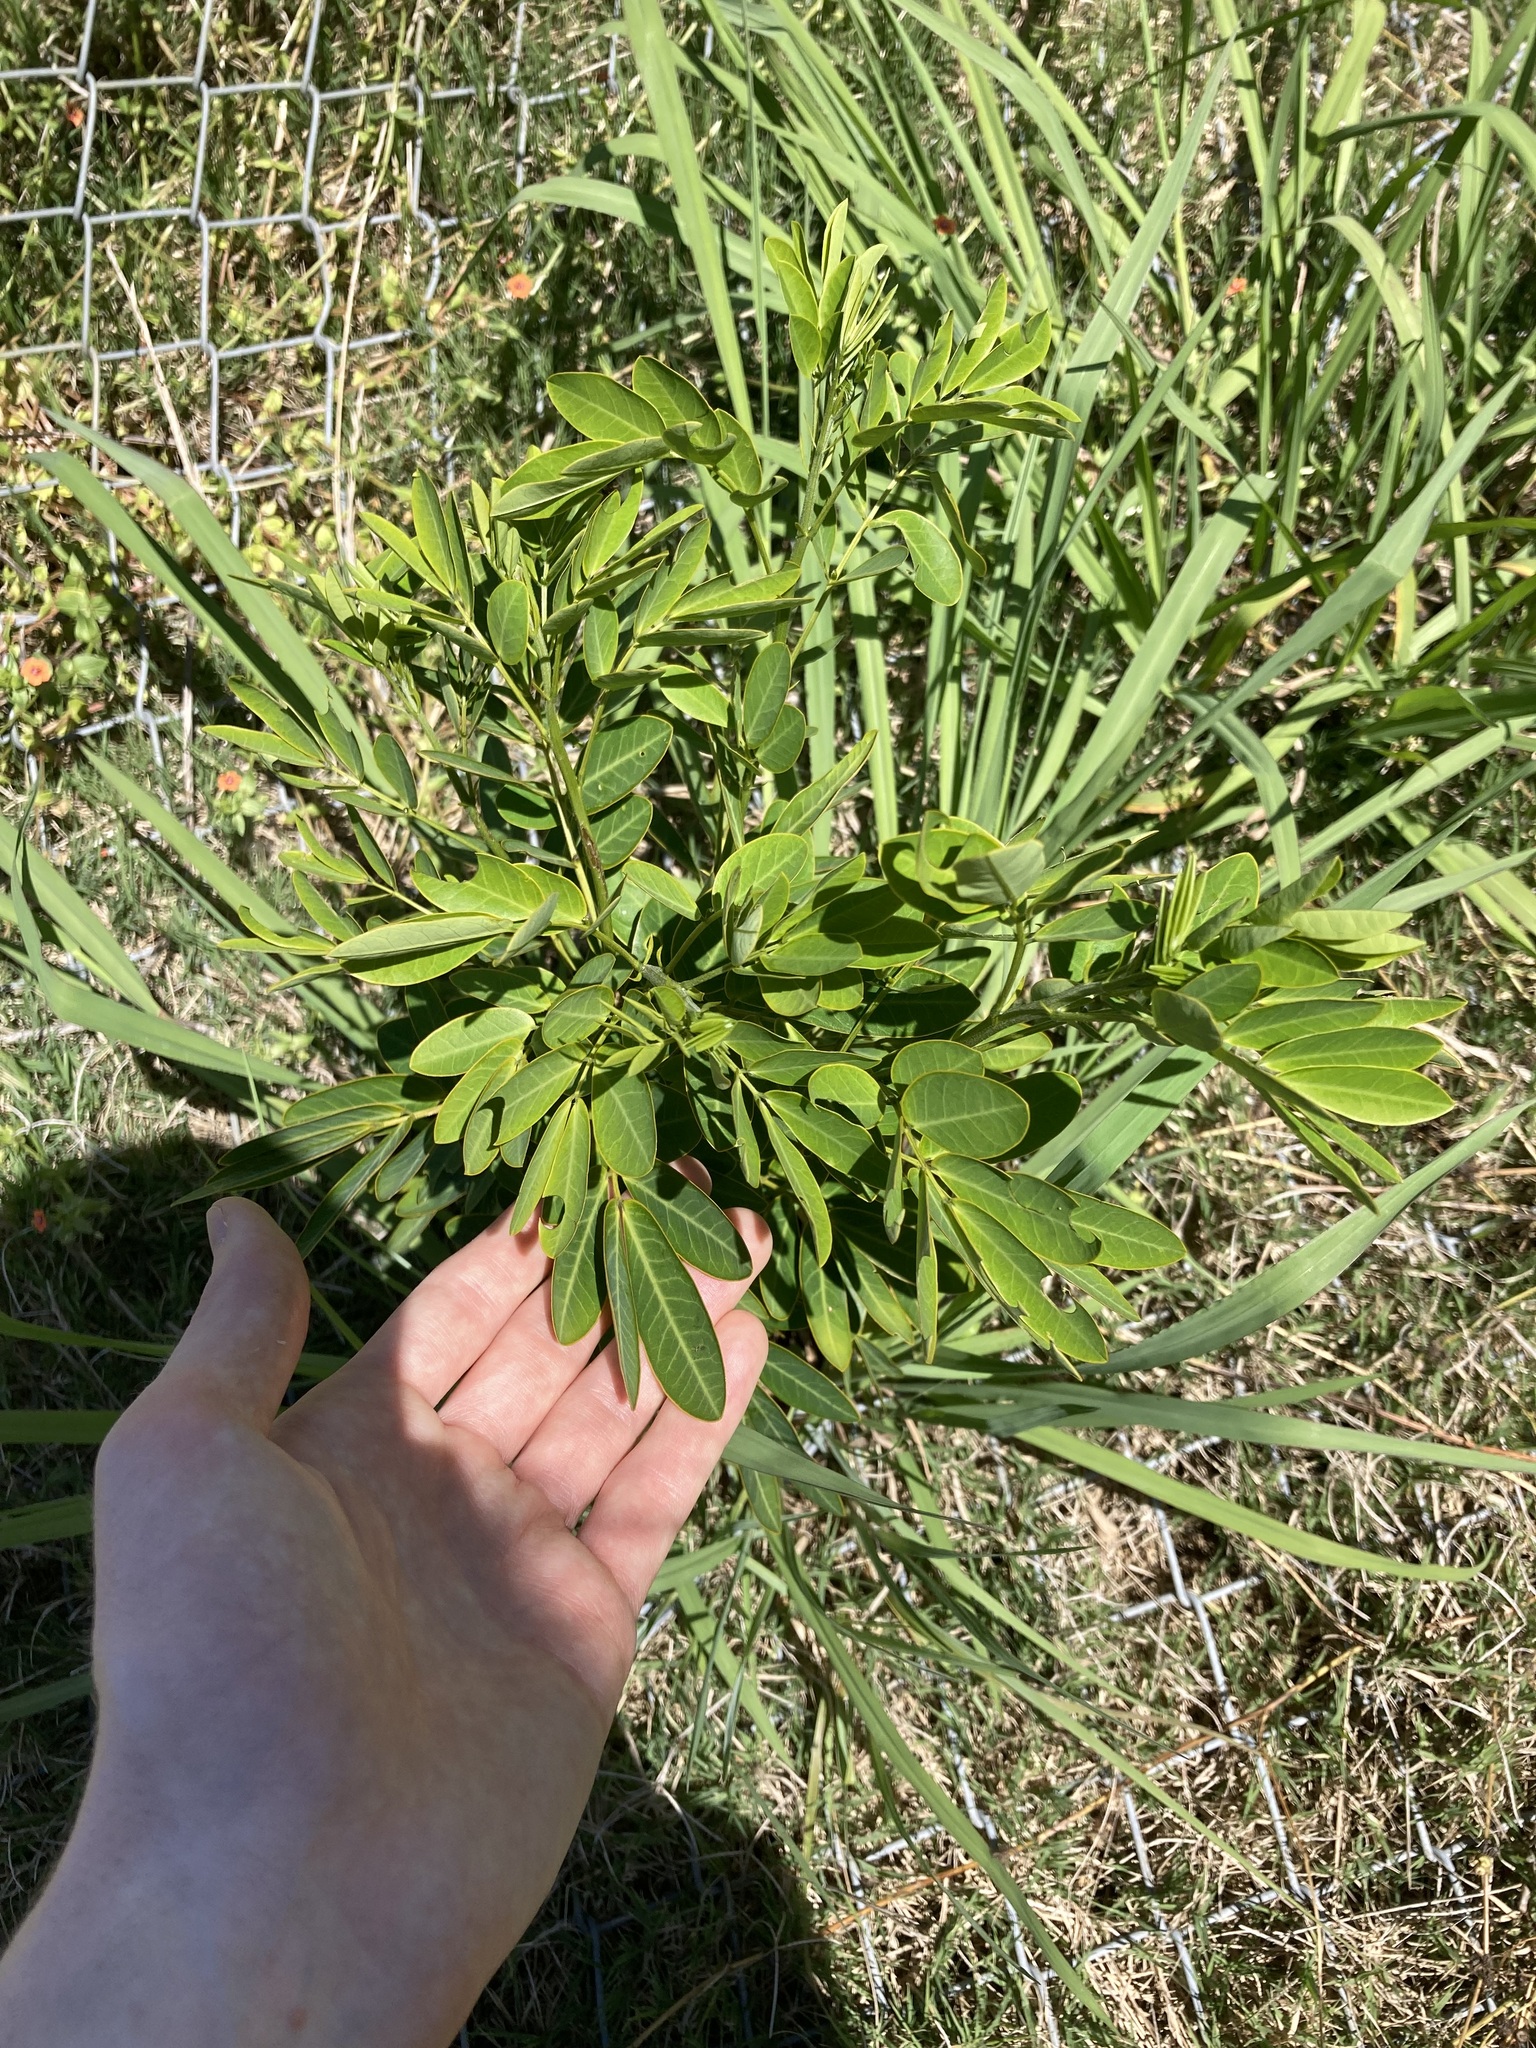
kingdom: Plantae
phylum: Tracheophyta
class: Magnoliopsida
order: Fabales
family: Fabaceae
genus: Senna
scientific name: Senna pendula
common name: Easter cassia
